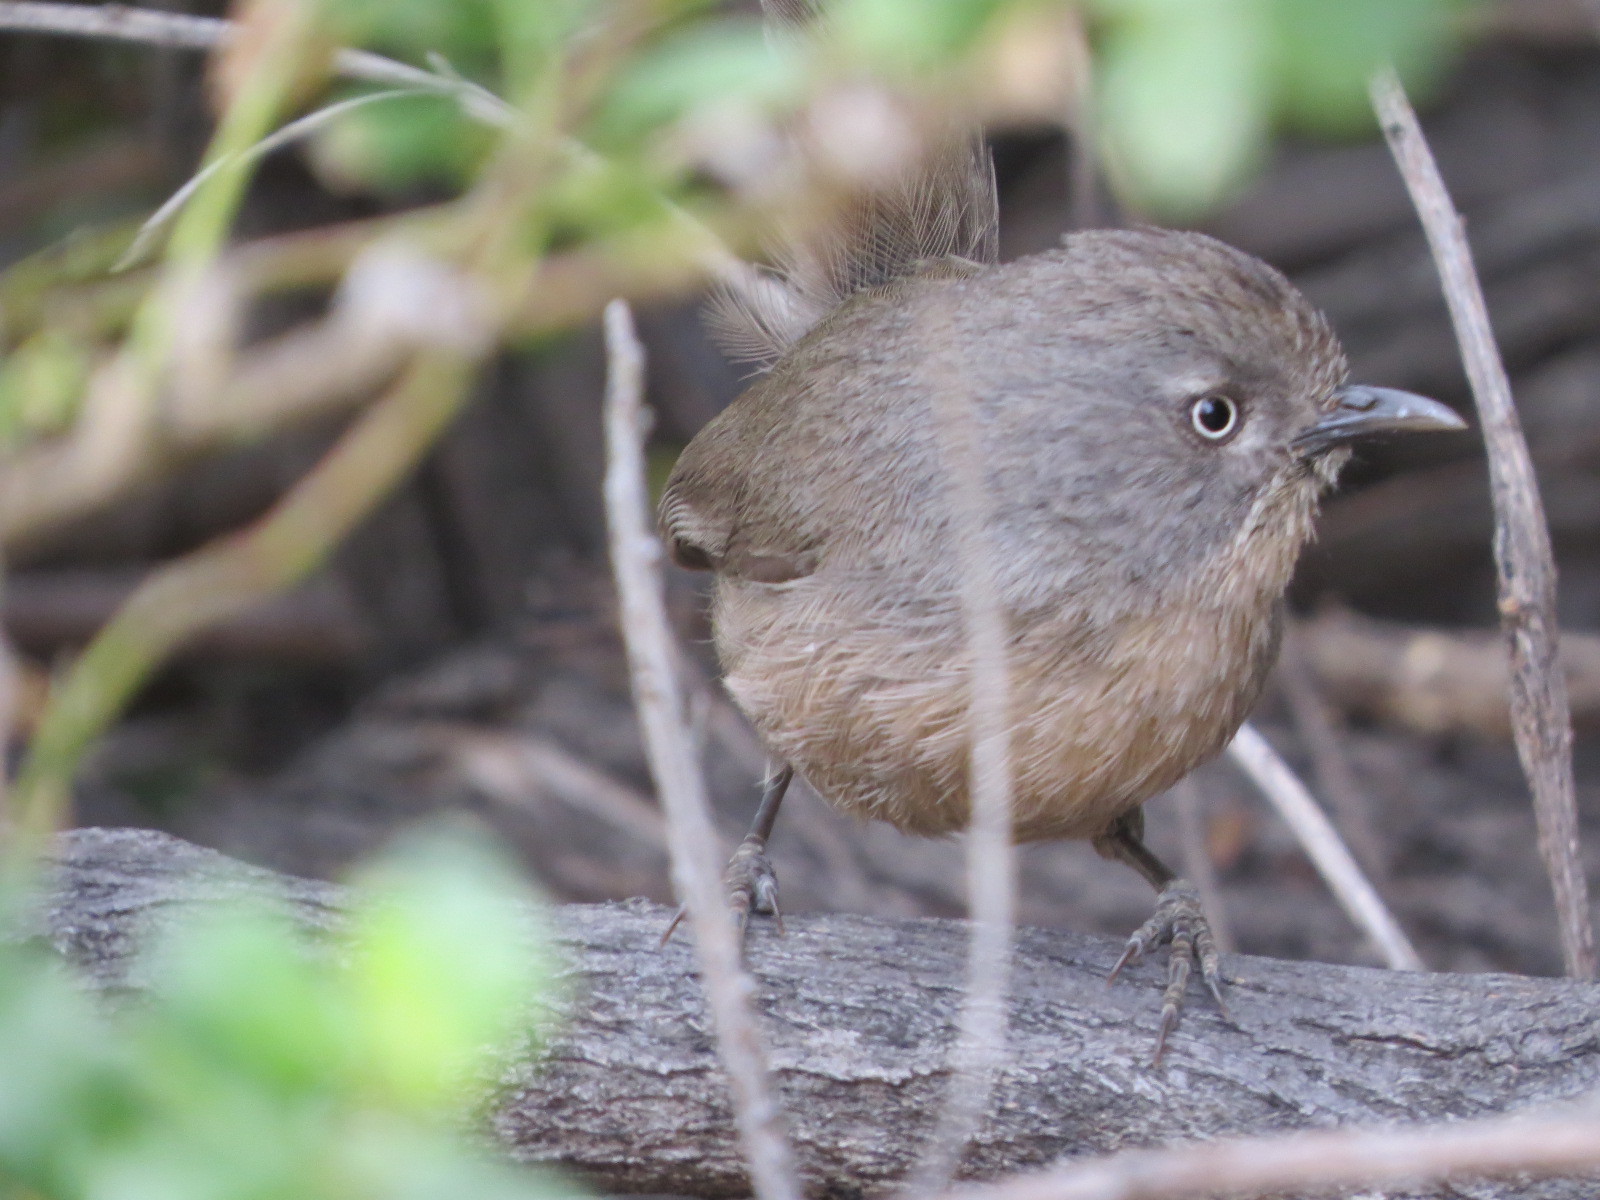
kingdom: Animalia
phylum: Chordata
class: Aves
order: Passeriformes
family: Sylviidae
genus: Chamaea
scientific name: Chamaea fasciata
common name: Wrentit
